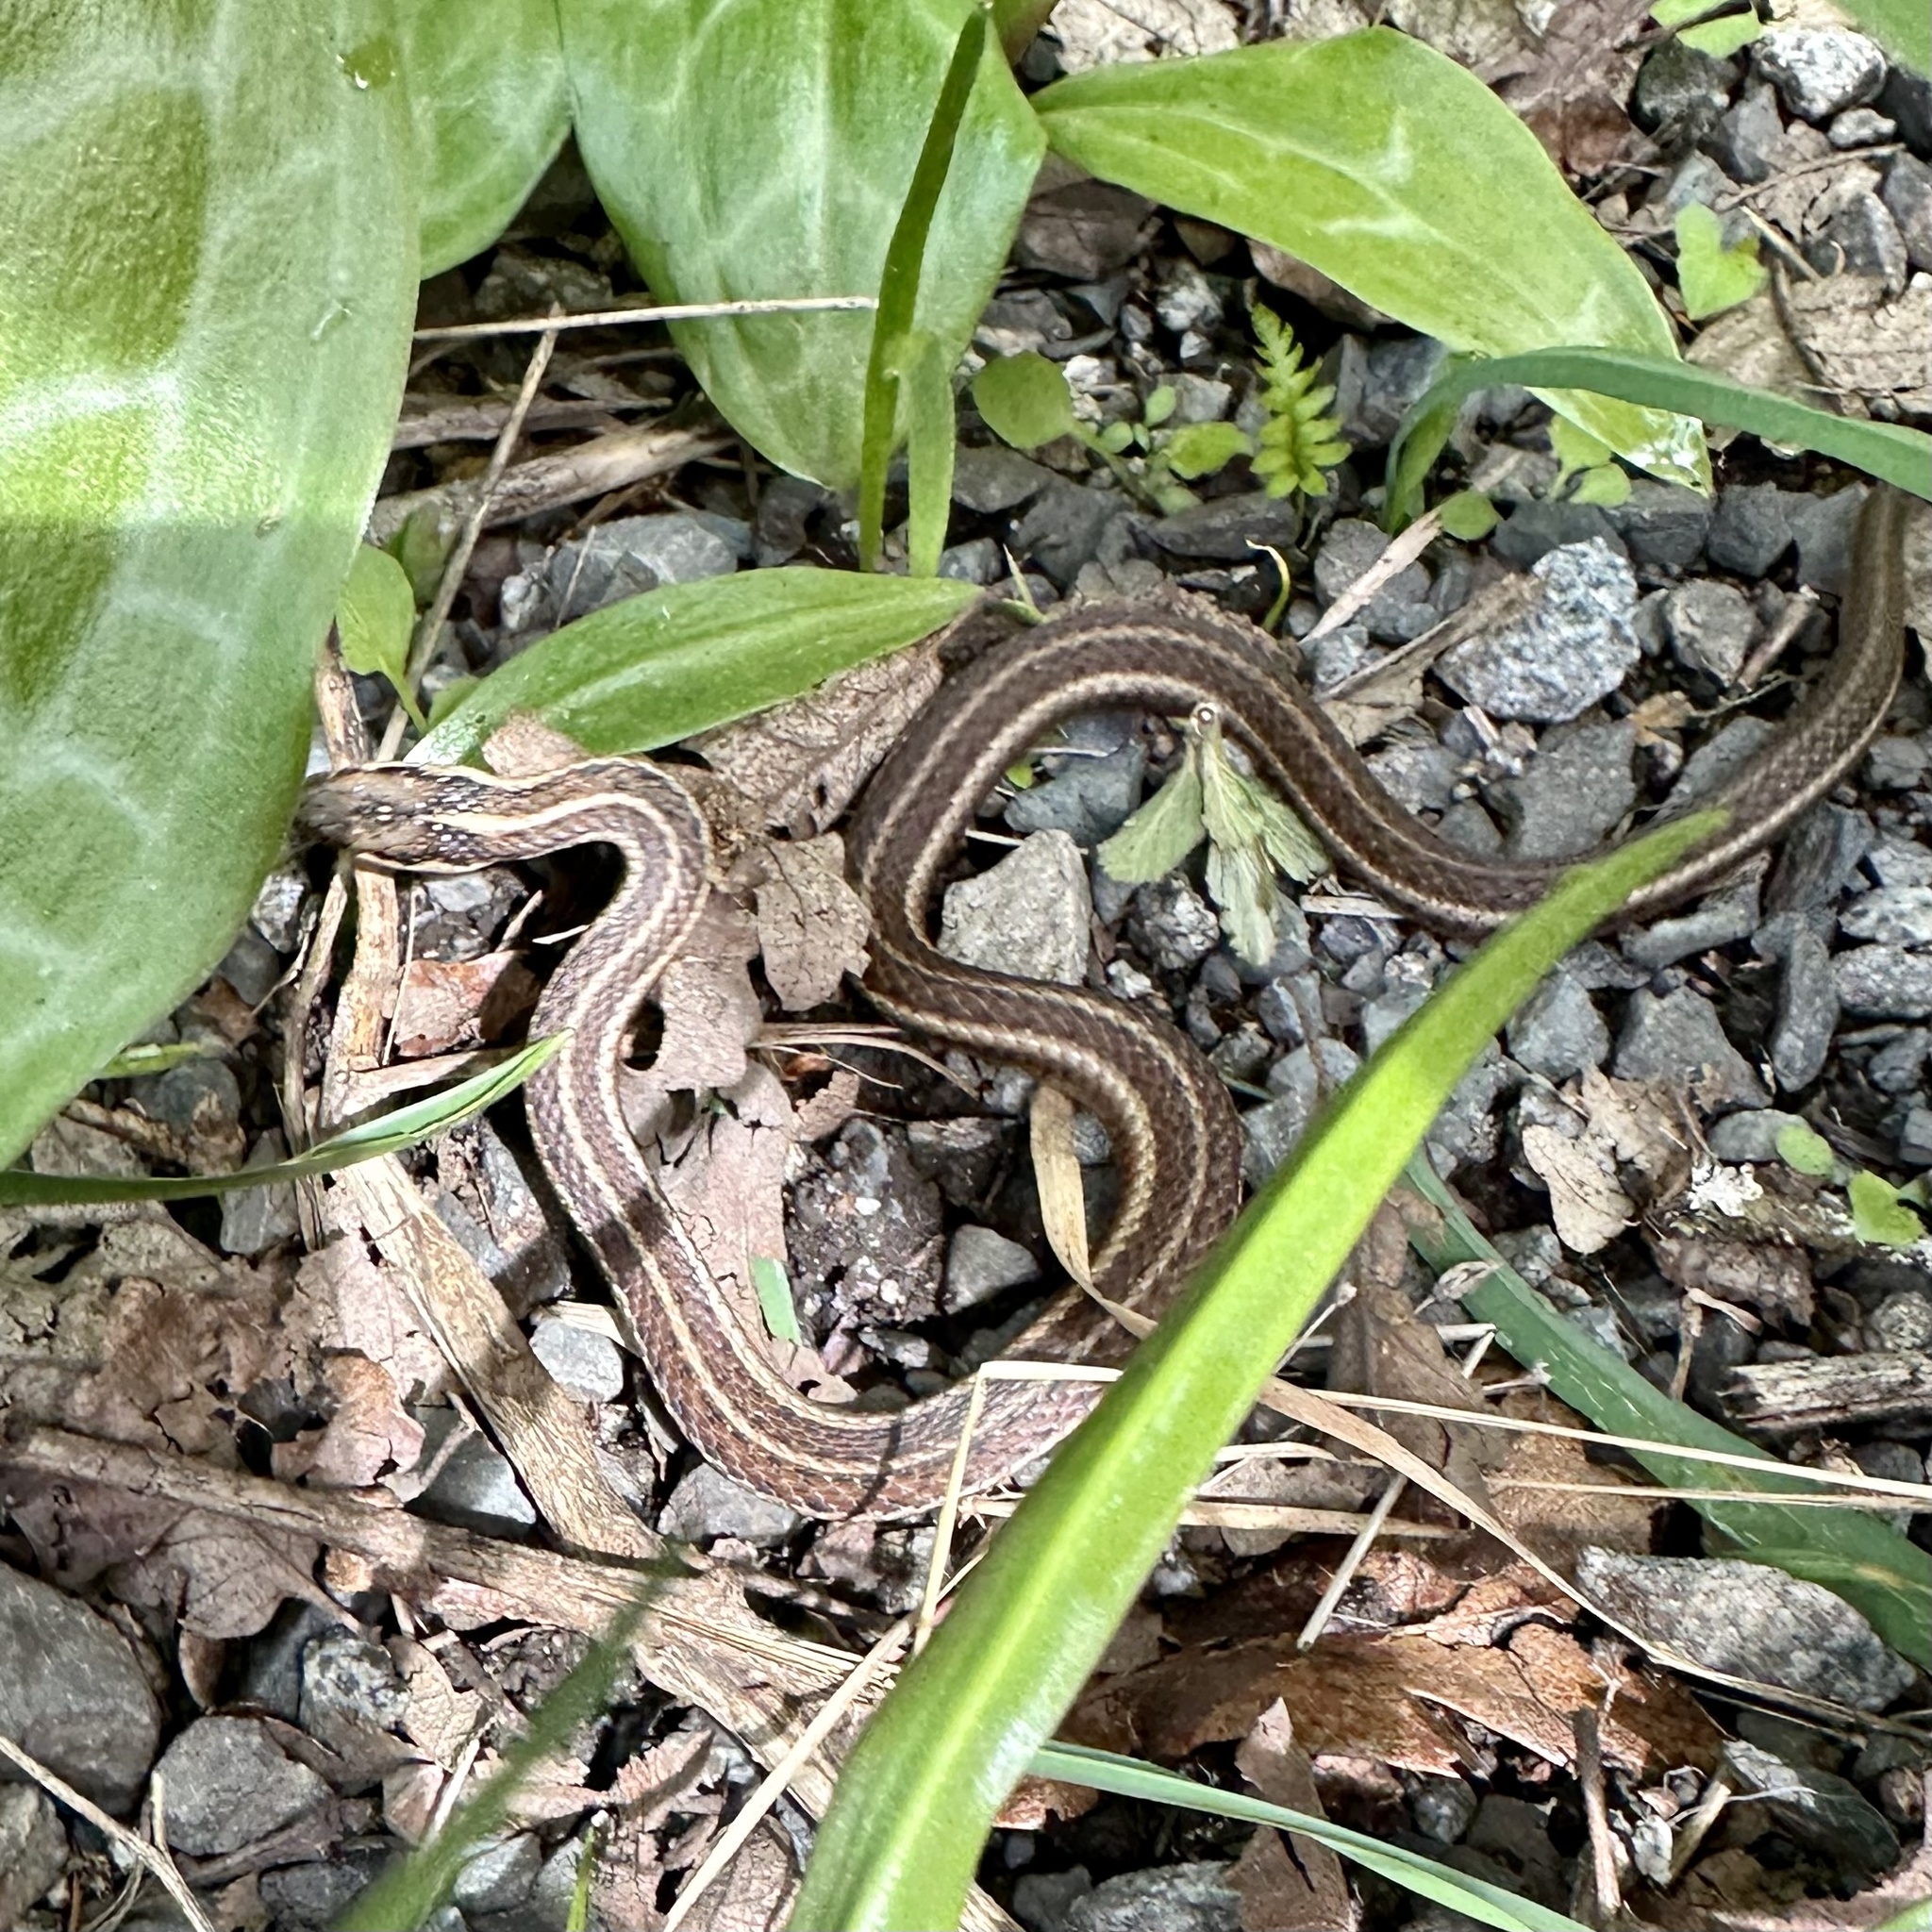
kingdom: Animalia
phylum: Chordata
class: Squamata
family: Colubridae
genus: Thamnophis
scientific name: Thamnophis ordinoides
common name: Northwestern garter snake
